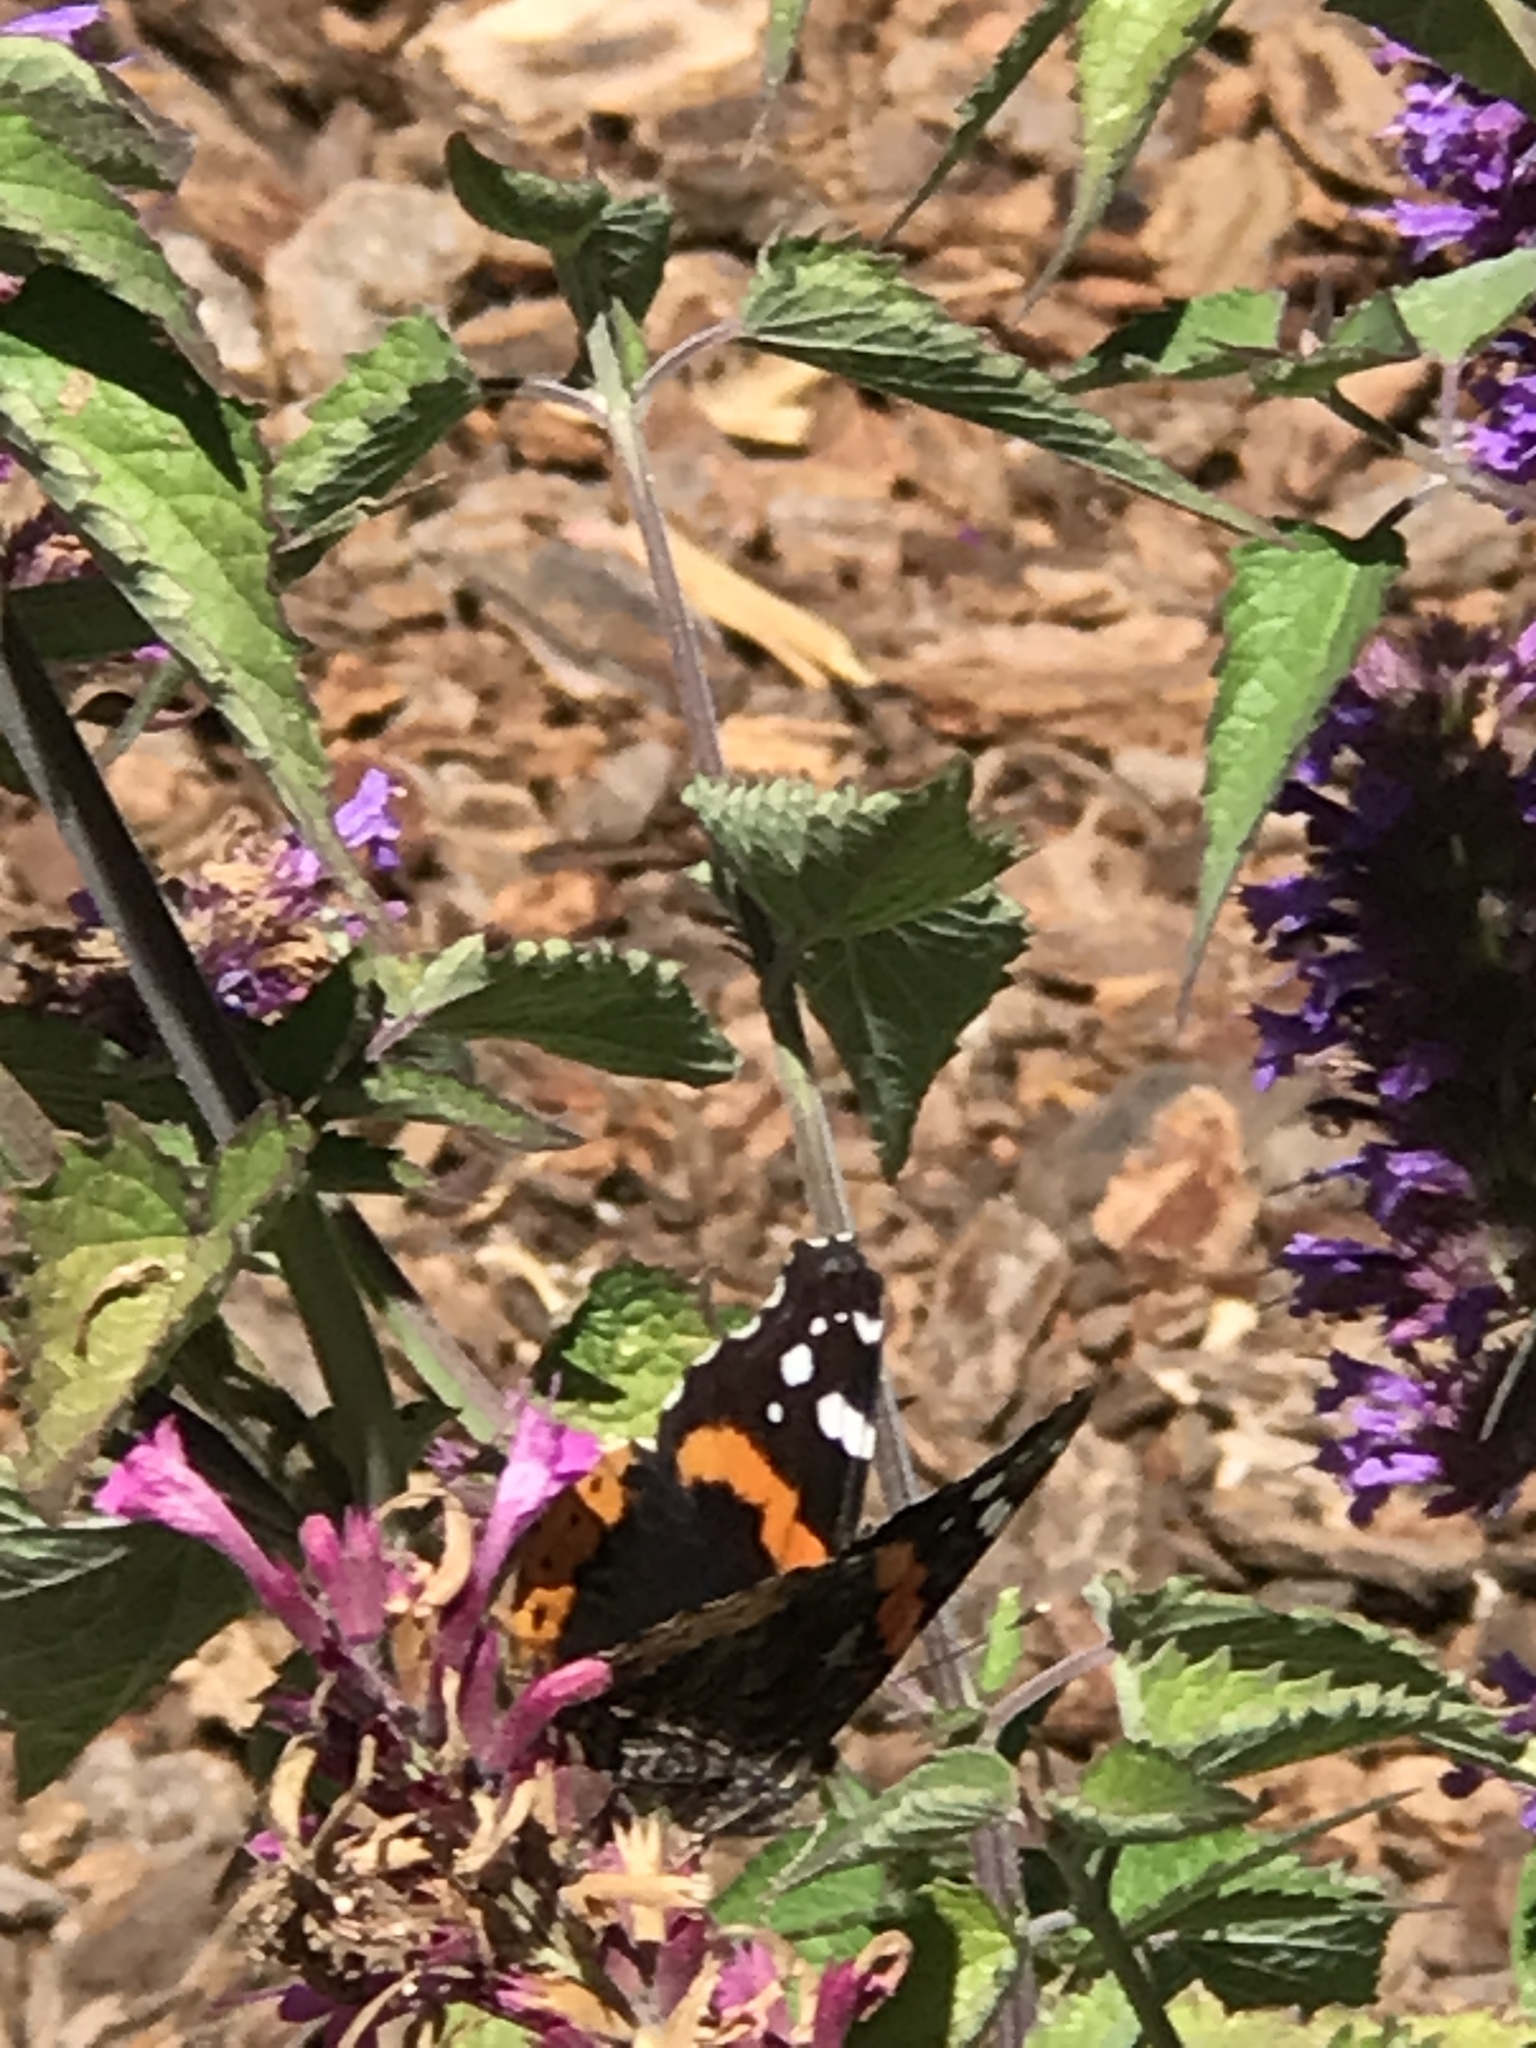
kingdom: Animalia
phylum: Arthropoda
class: Insecta
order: Lepidoptera
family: Nymphalidae
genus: Vanessa
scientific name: Vanessa atalanta
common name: Red admiral
